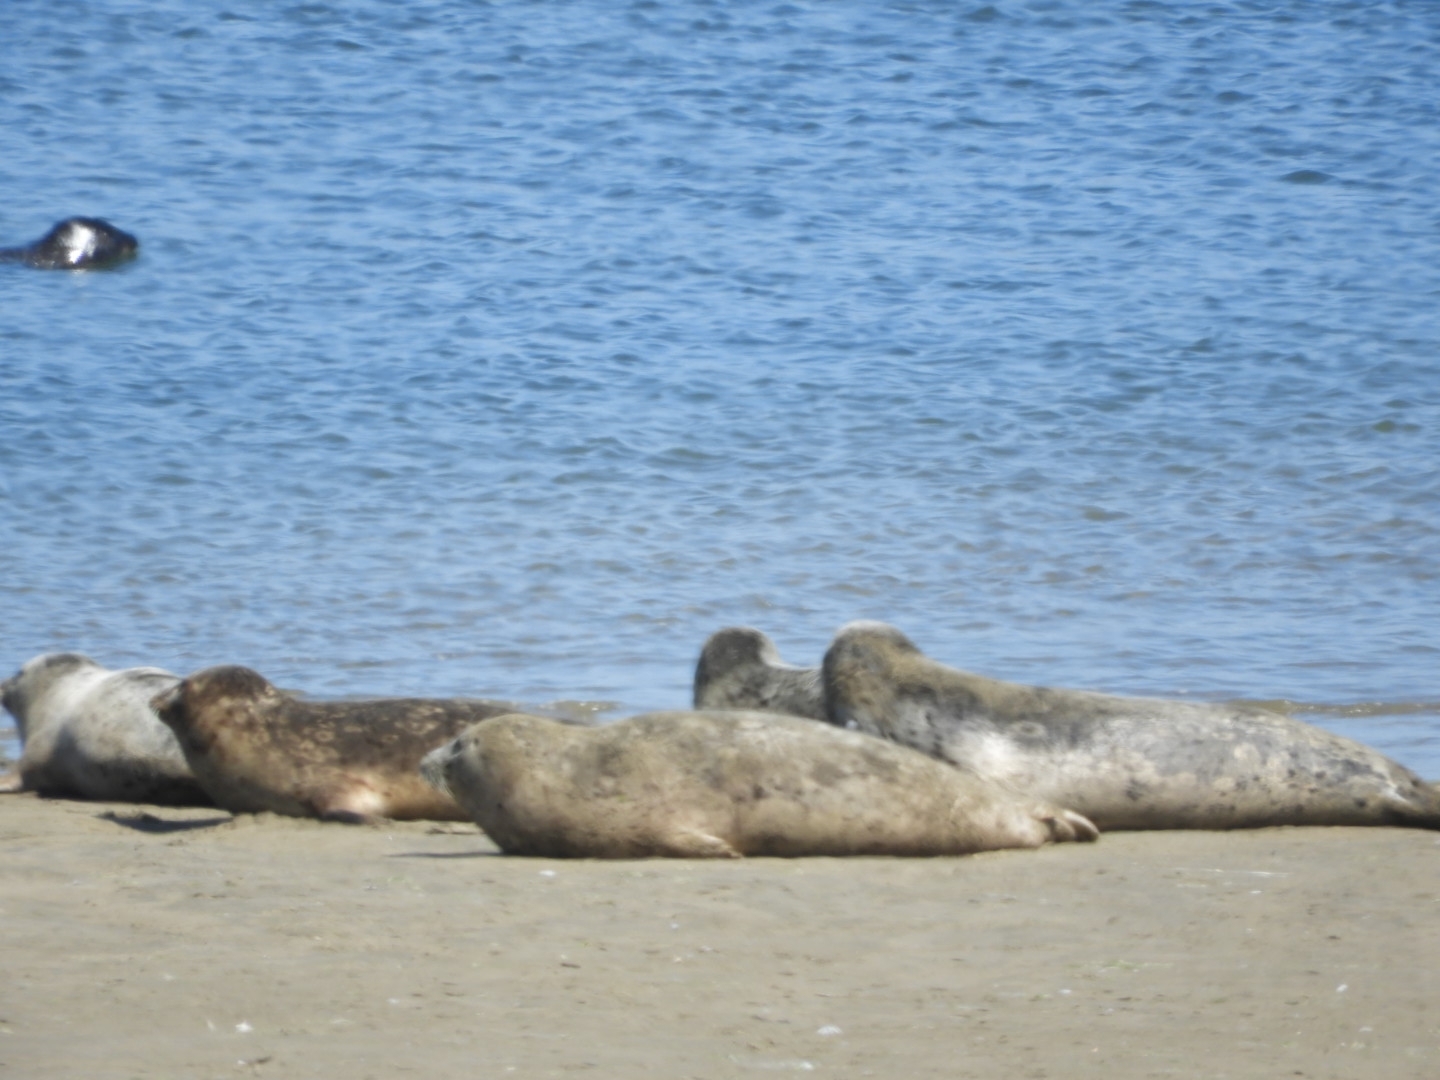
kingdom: Animalia
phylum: Chordata
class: Mammalia
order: Carnivora
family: Phocidae
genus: Phoca
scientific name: Phoca vitulina
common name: Harbor seal
